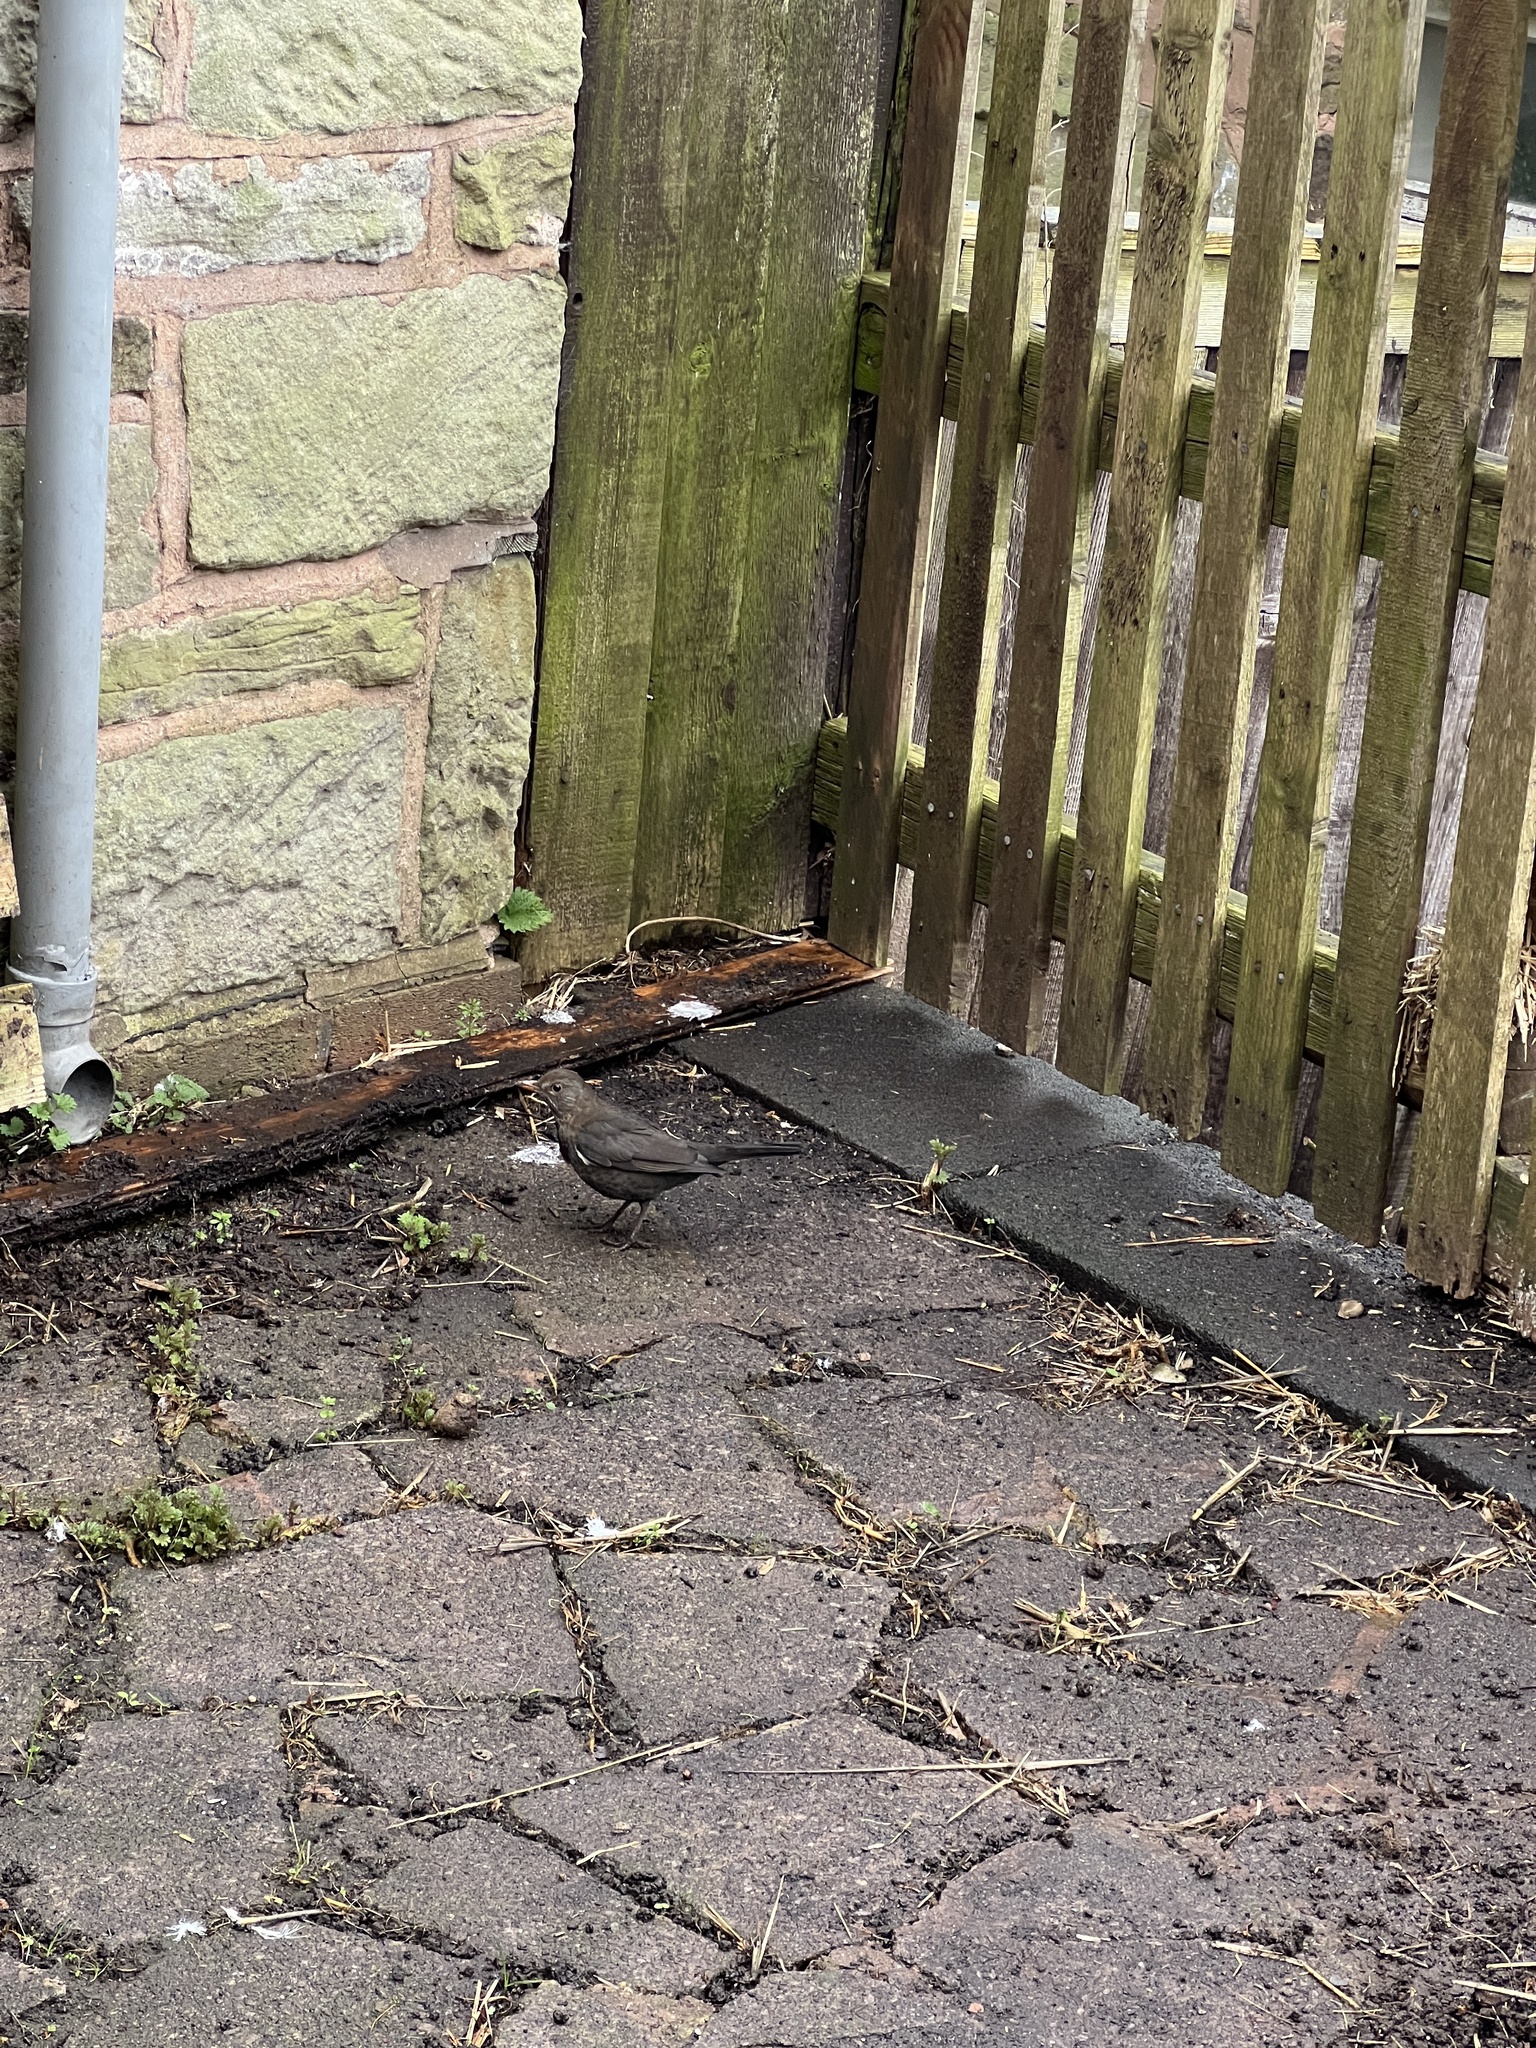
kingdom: Animalia
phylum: Chordata
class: Aves
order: Passeriformes
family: Turdidae
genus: Turdus
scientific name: Turdus merula
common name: Common blackbird
